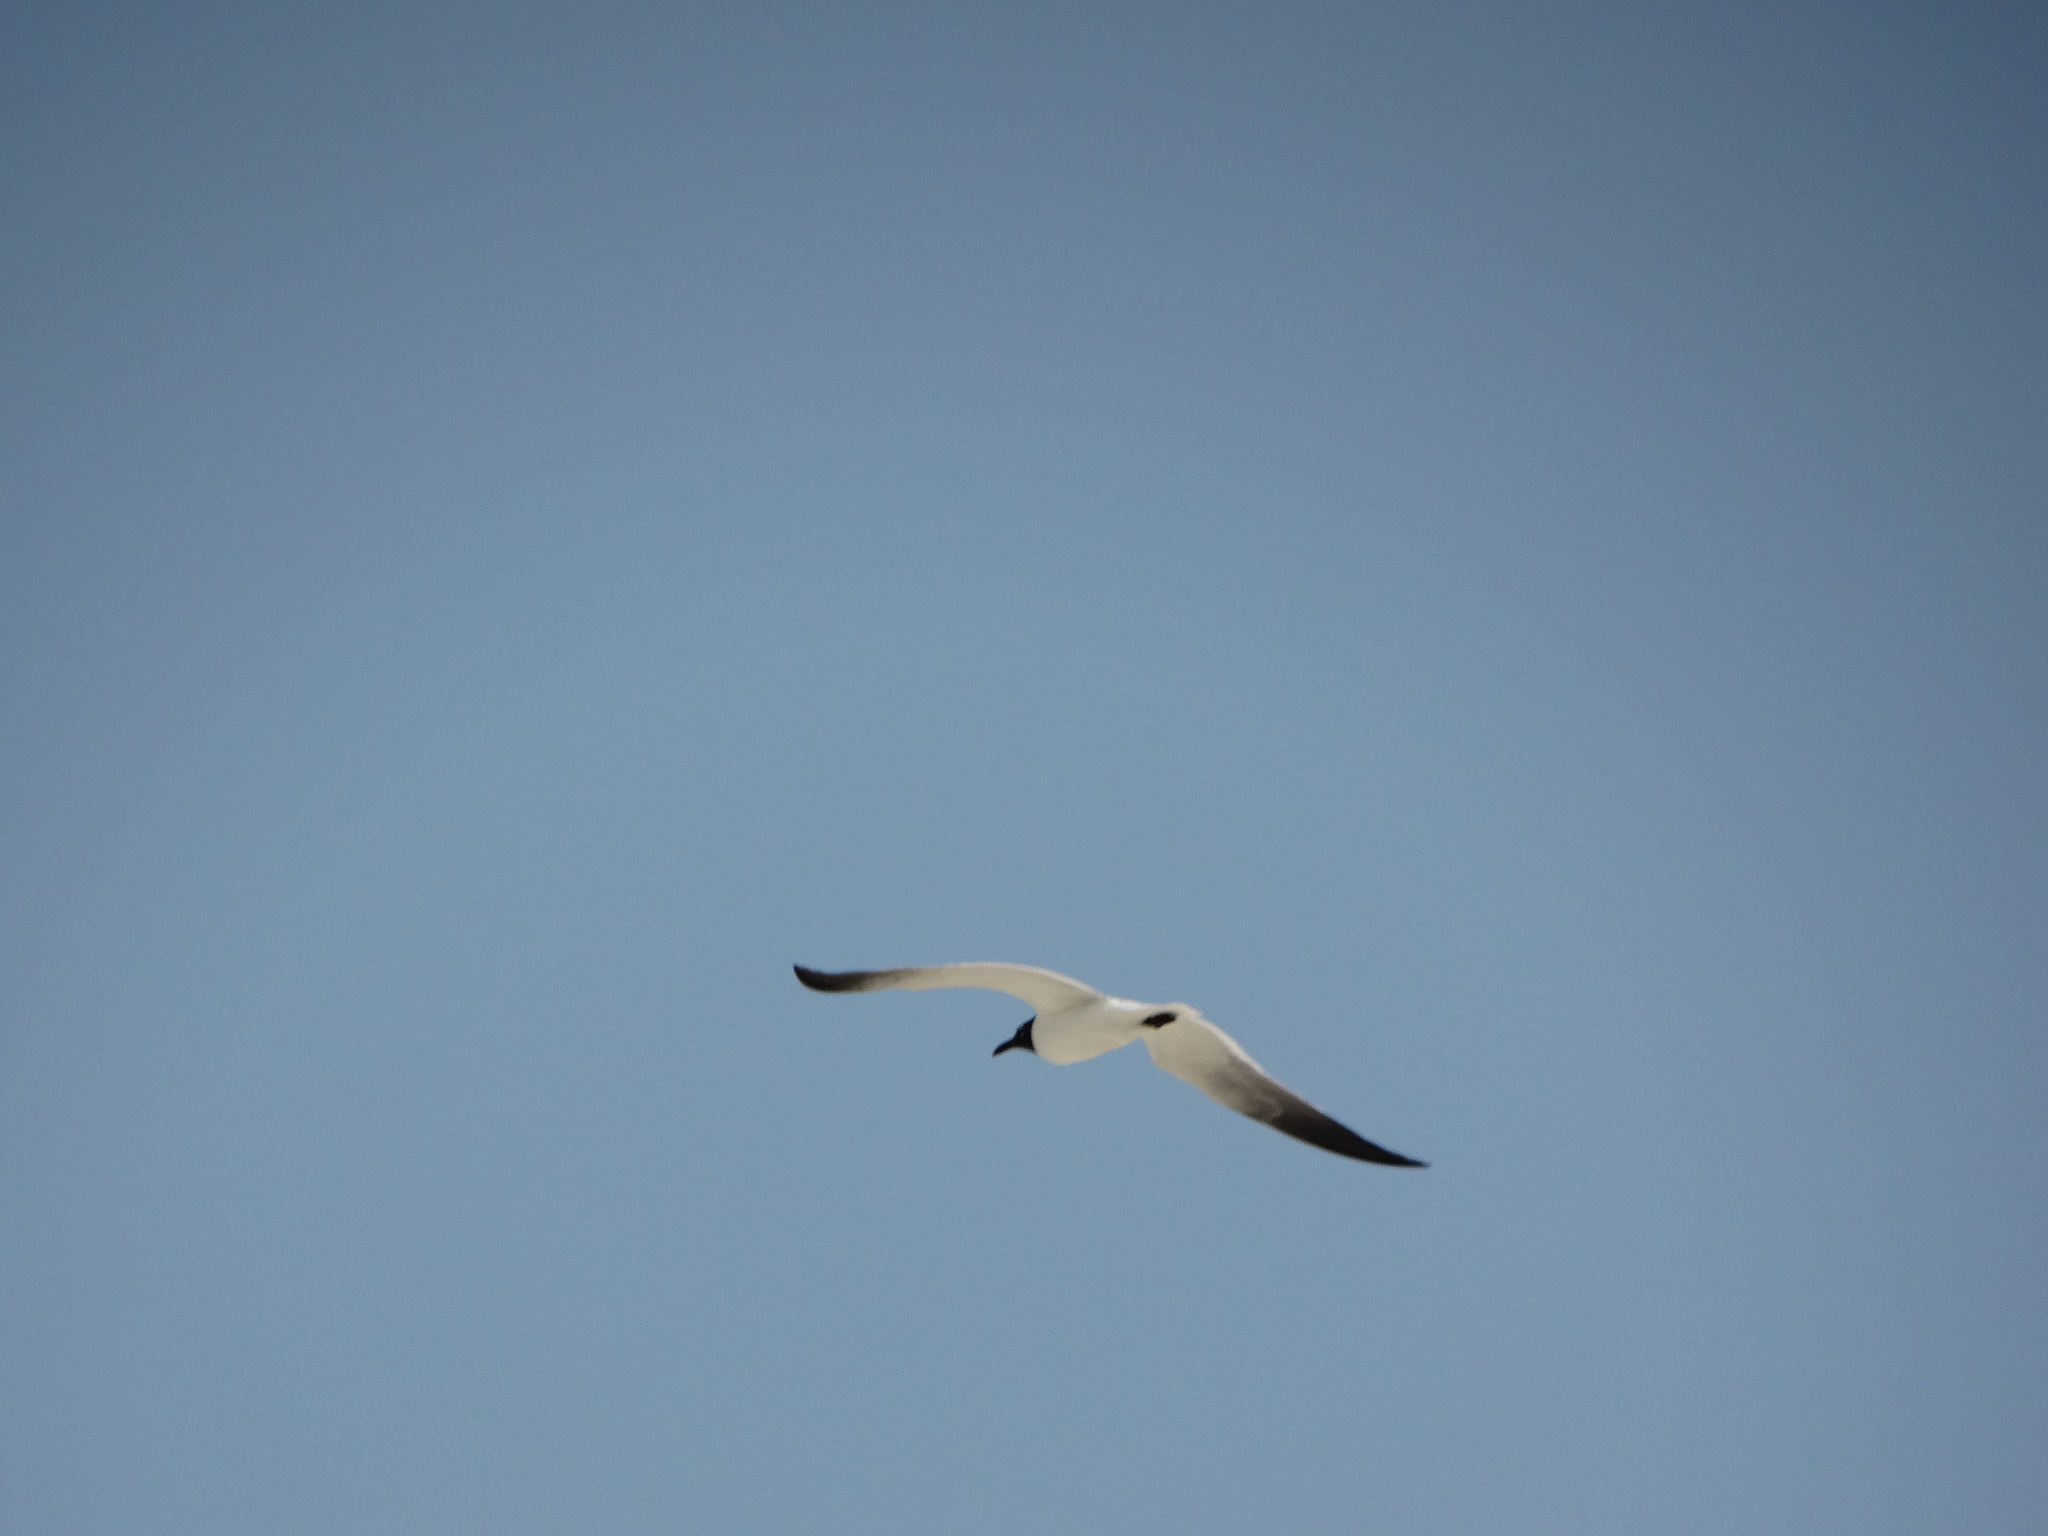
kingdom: Animalia
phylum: Chordata
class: Aves
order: Charadriiformes
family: Laridae
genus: Leucophaeus
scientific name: Leucophaeus atricilla
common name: Laughing gull
